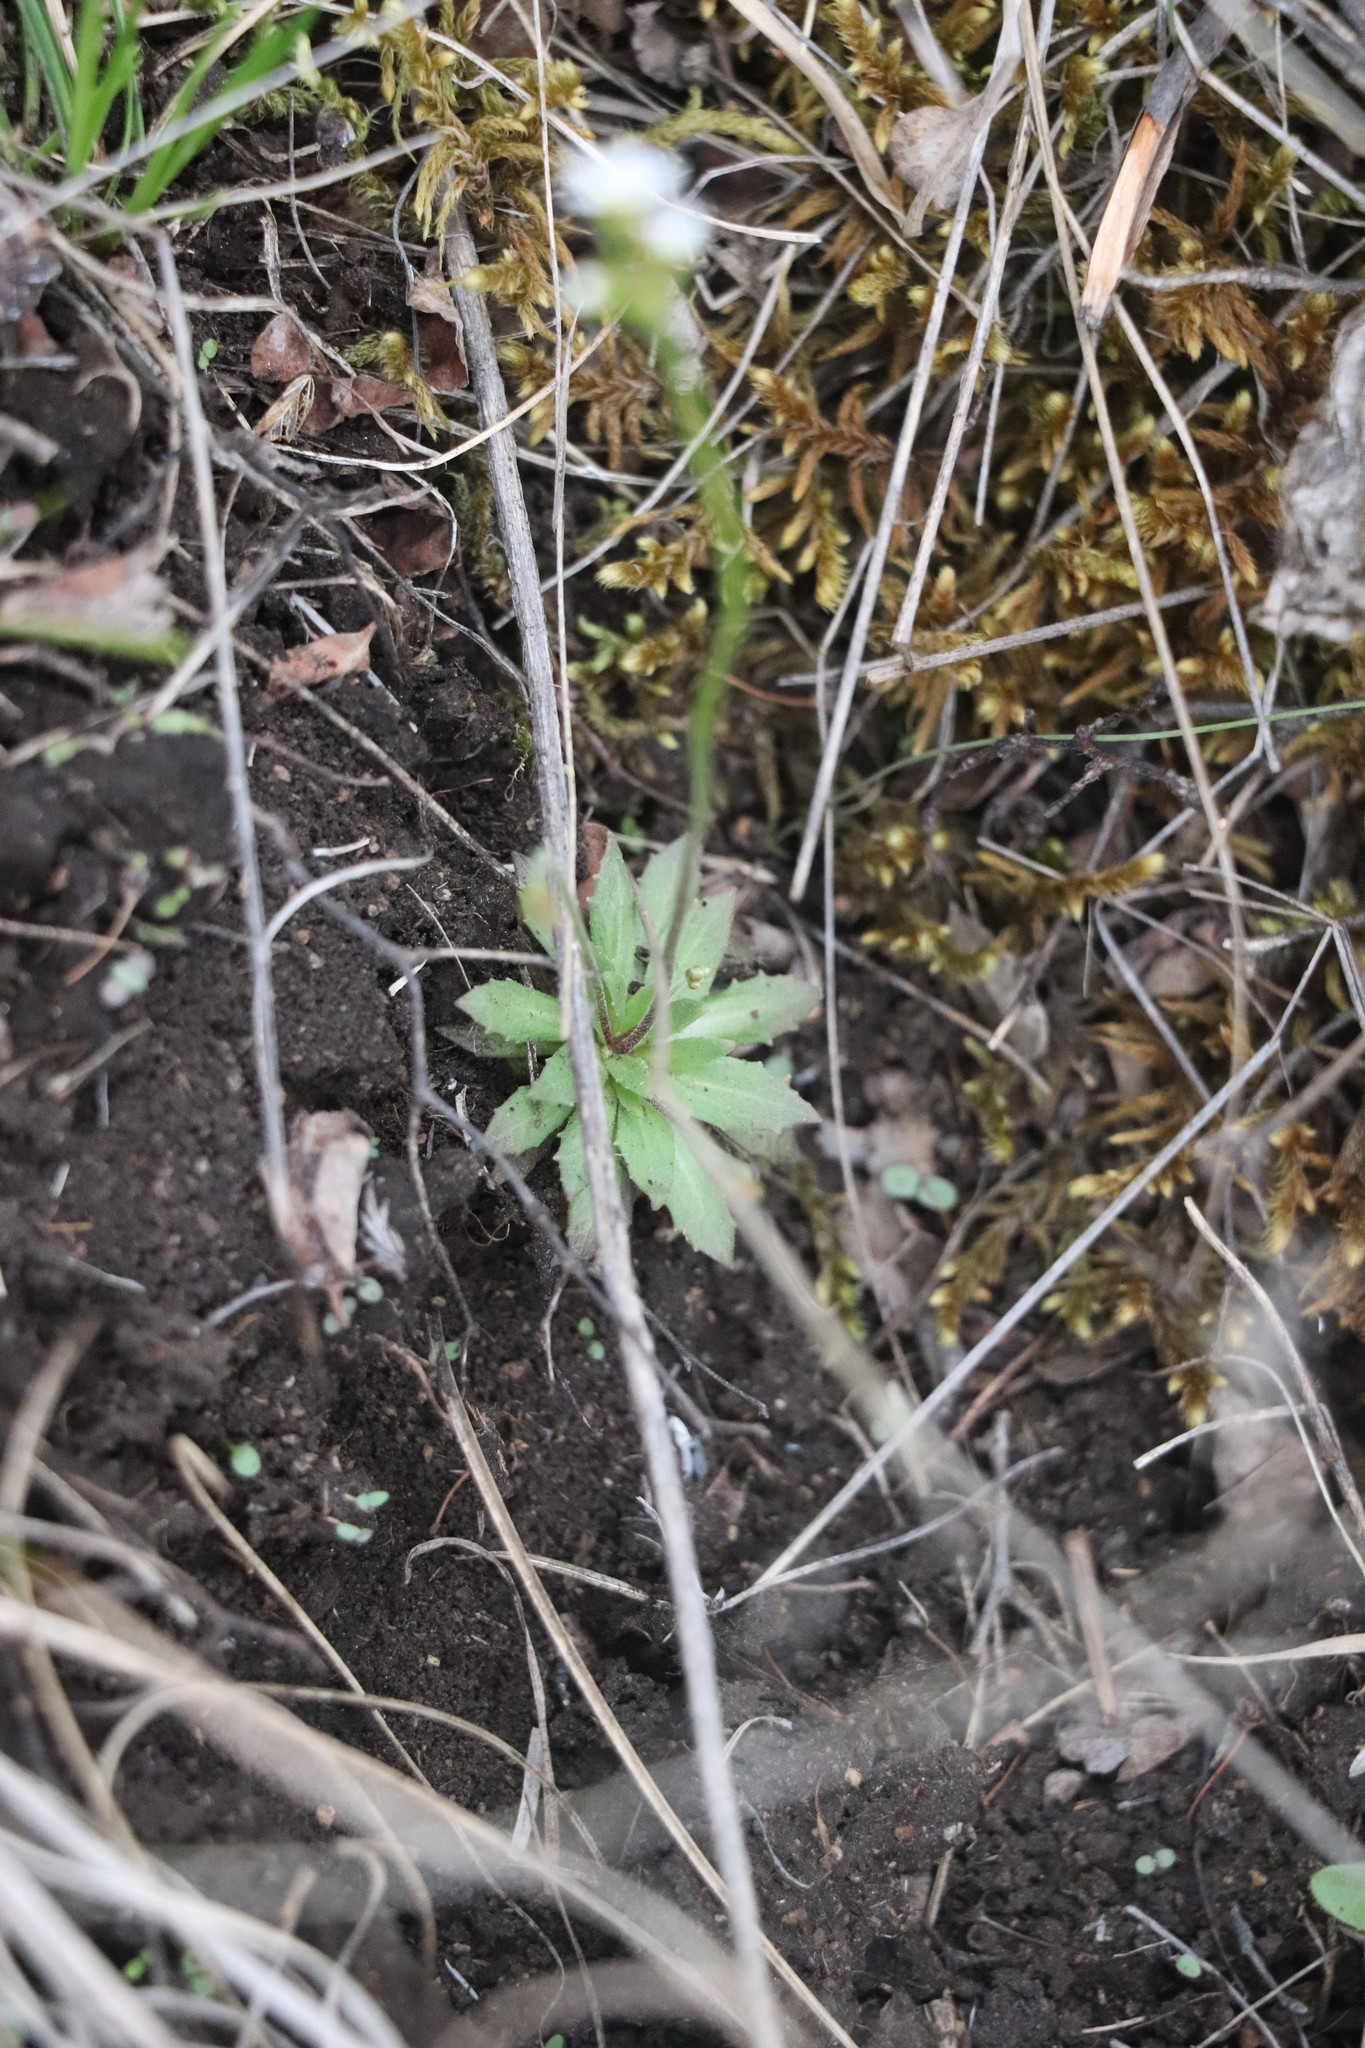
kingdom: Plantae
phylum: Tracheophyta
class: Magnoliopsida
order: Ericales
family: Primulaceae
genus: Androsace
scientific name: Androsace septentrionalis
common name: Hairy northern fairy-candelabra
